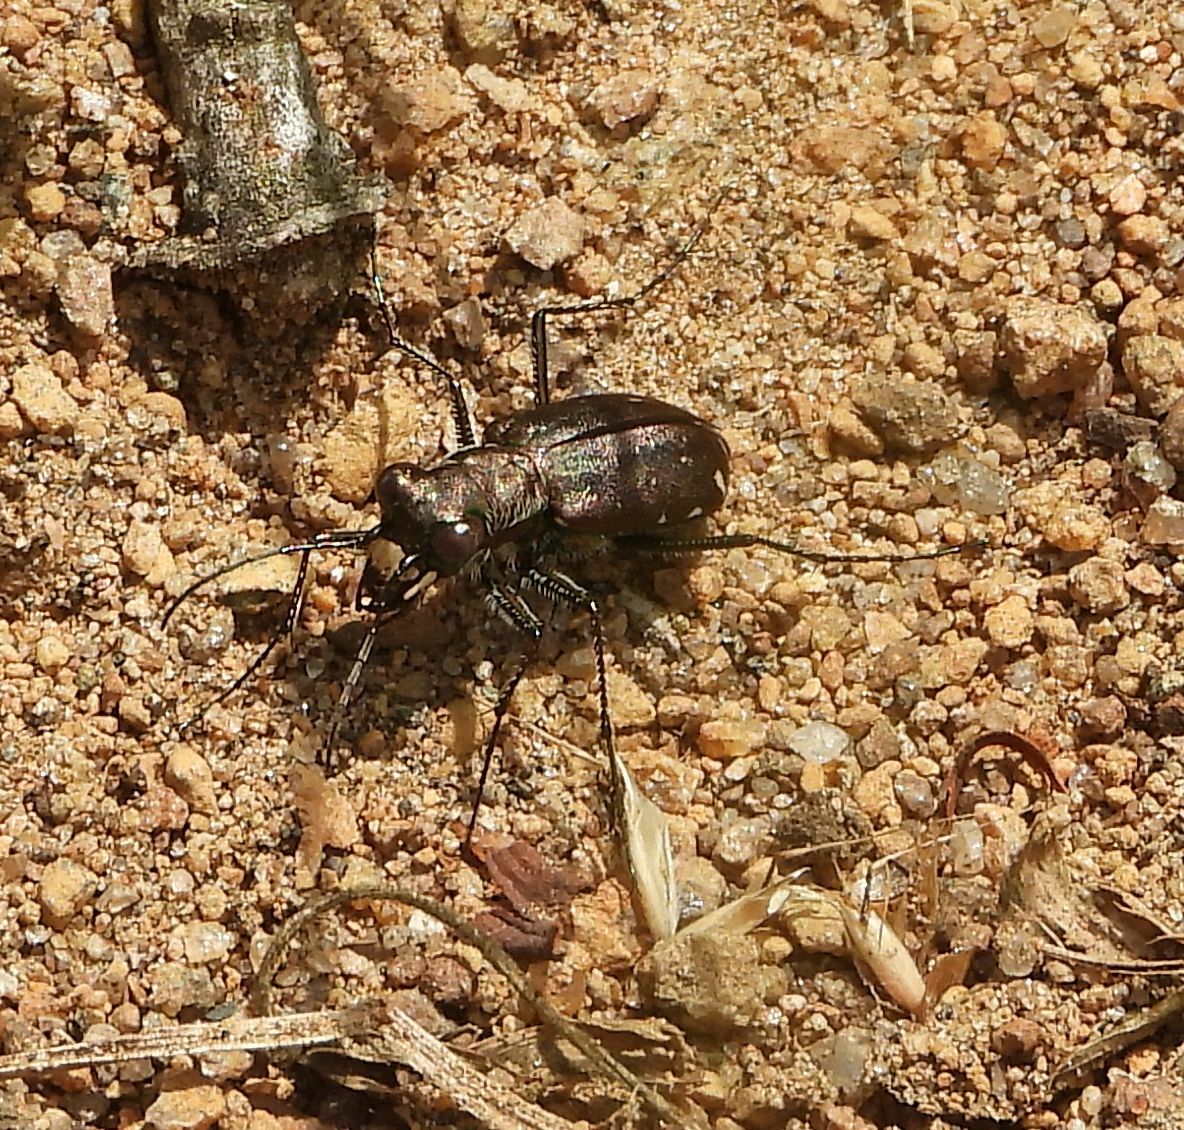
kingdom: Animalia
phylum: Arthropoda
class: Insecta
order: Coleoptera
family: Carabidae
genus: Cicindela
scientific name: Cicindela punctulata
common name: Punctured tiger beetle
